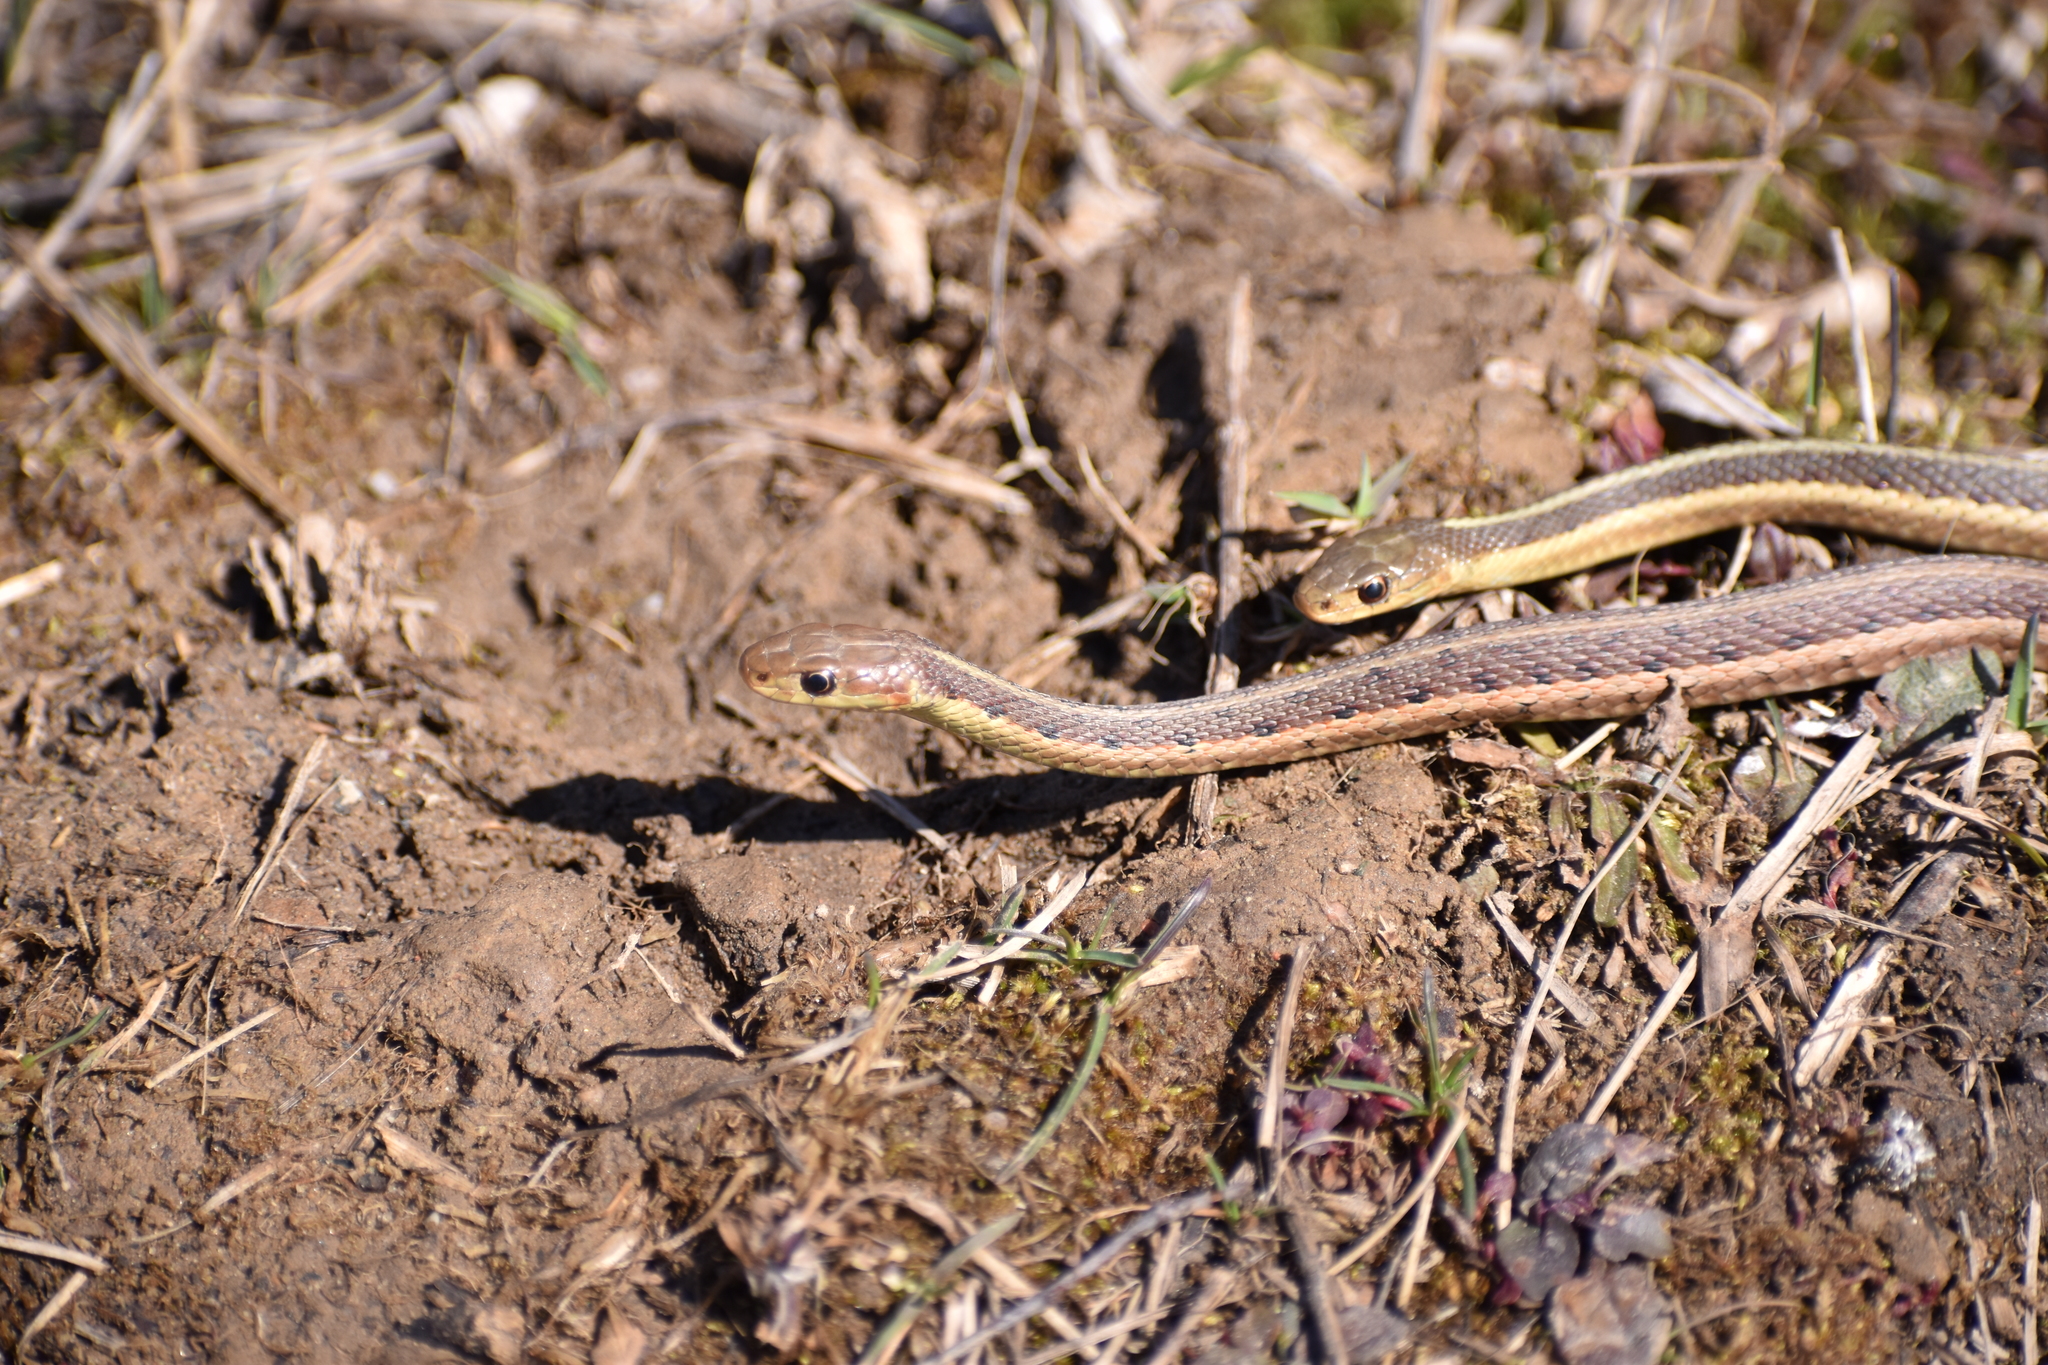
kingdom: Animalia
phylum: Chordata
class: Squamata
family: Colubridae
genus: Thamnophis
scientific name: Thamnophis sirtalis
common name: Common garter snake
